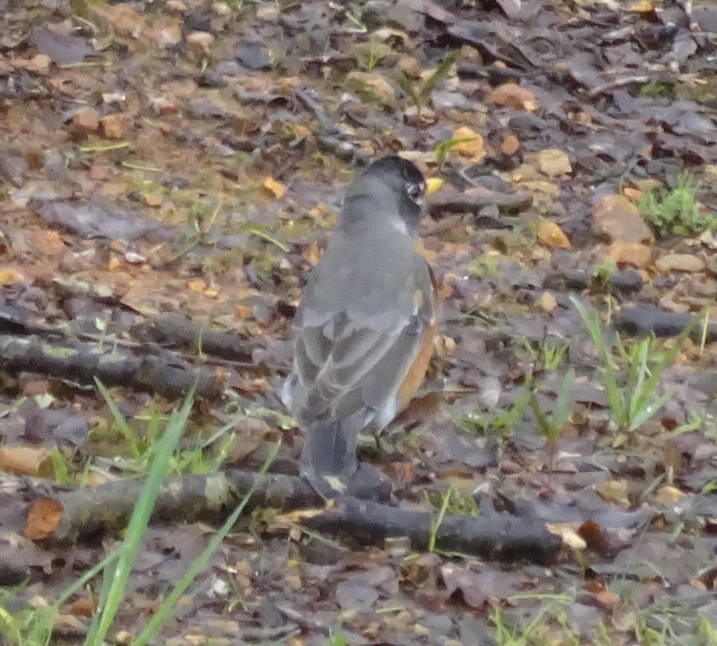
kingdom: Animalia
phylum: Chordata
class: Aves
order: Passeriformes
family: Turdidae
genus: Turdus
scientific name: Turdus migratorius
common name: American robin
